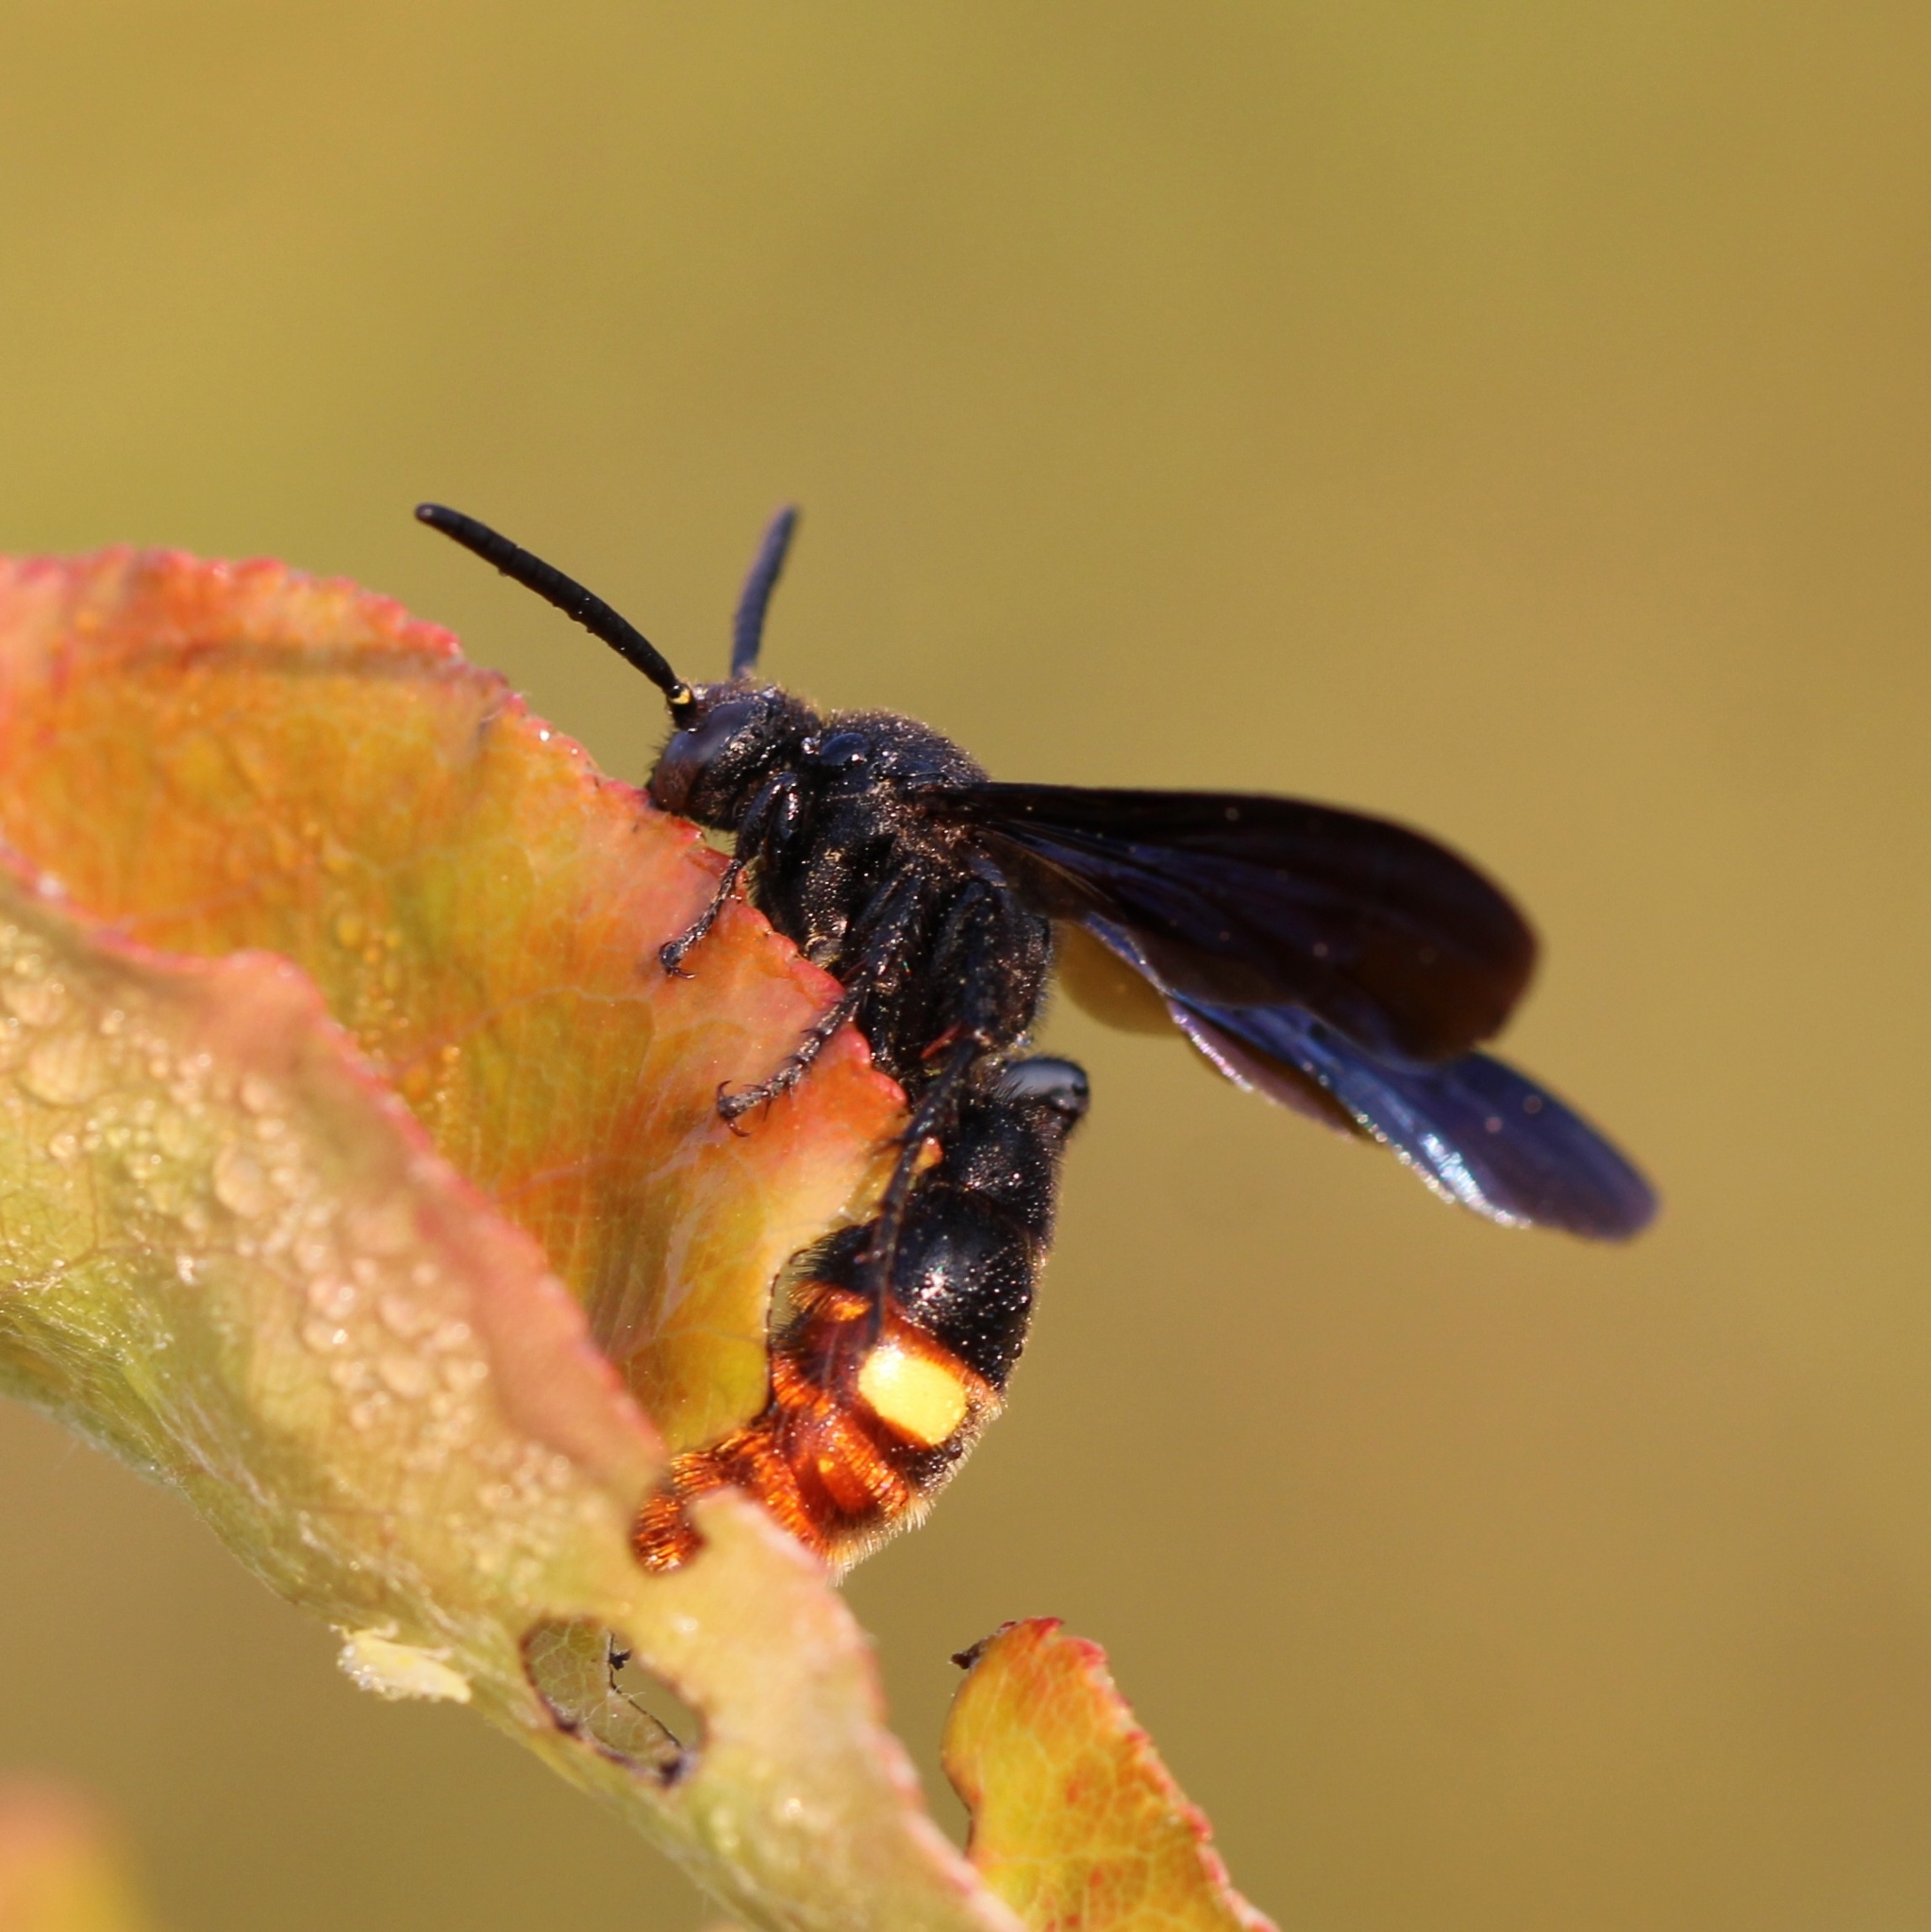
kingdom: Animalia
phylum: Arthropoda
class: Insecta
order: Hymenoptera
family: Scoliidae
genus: Scolia
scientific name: Scolia dubia
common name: Blue-winged scoliid wasp
